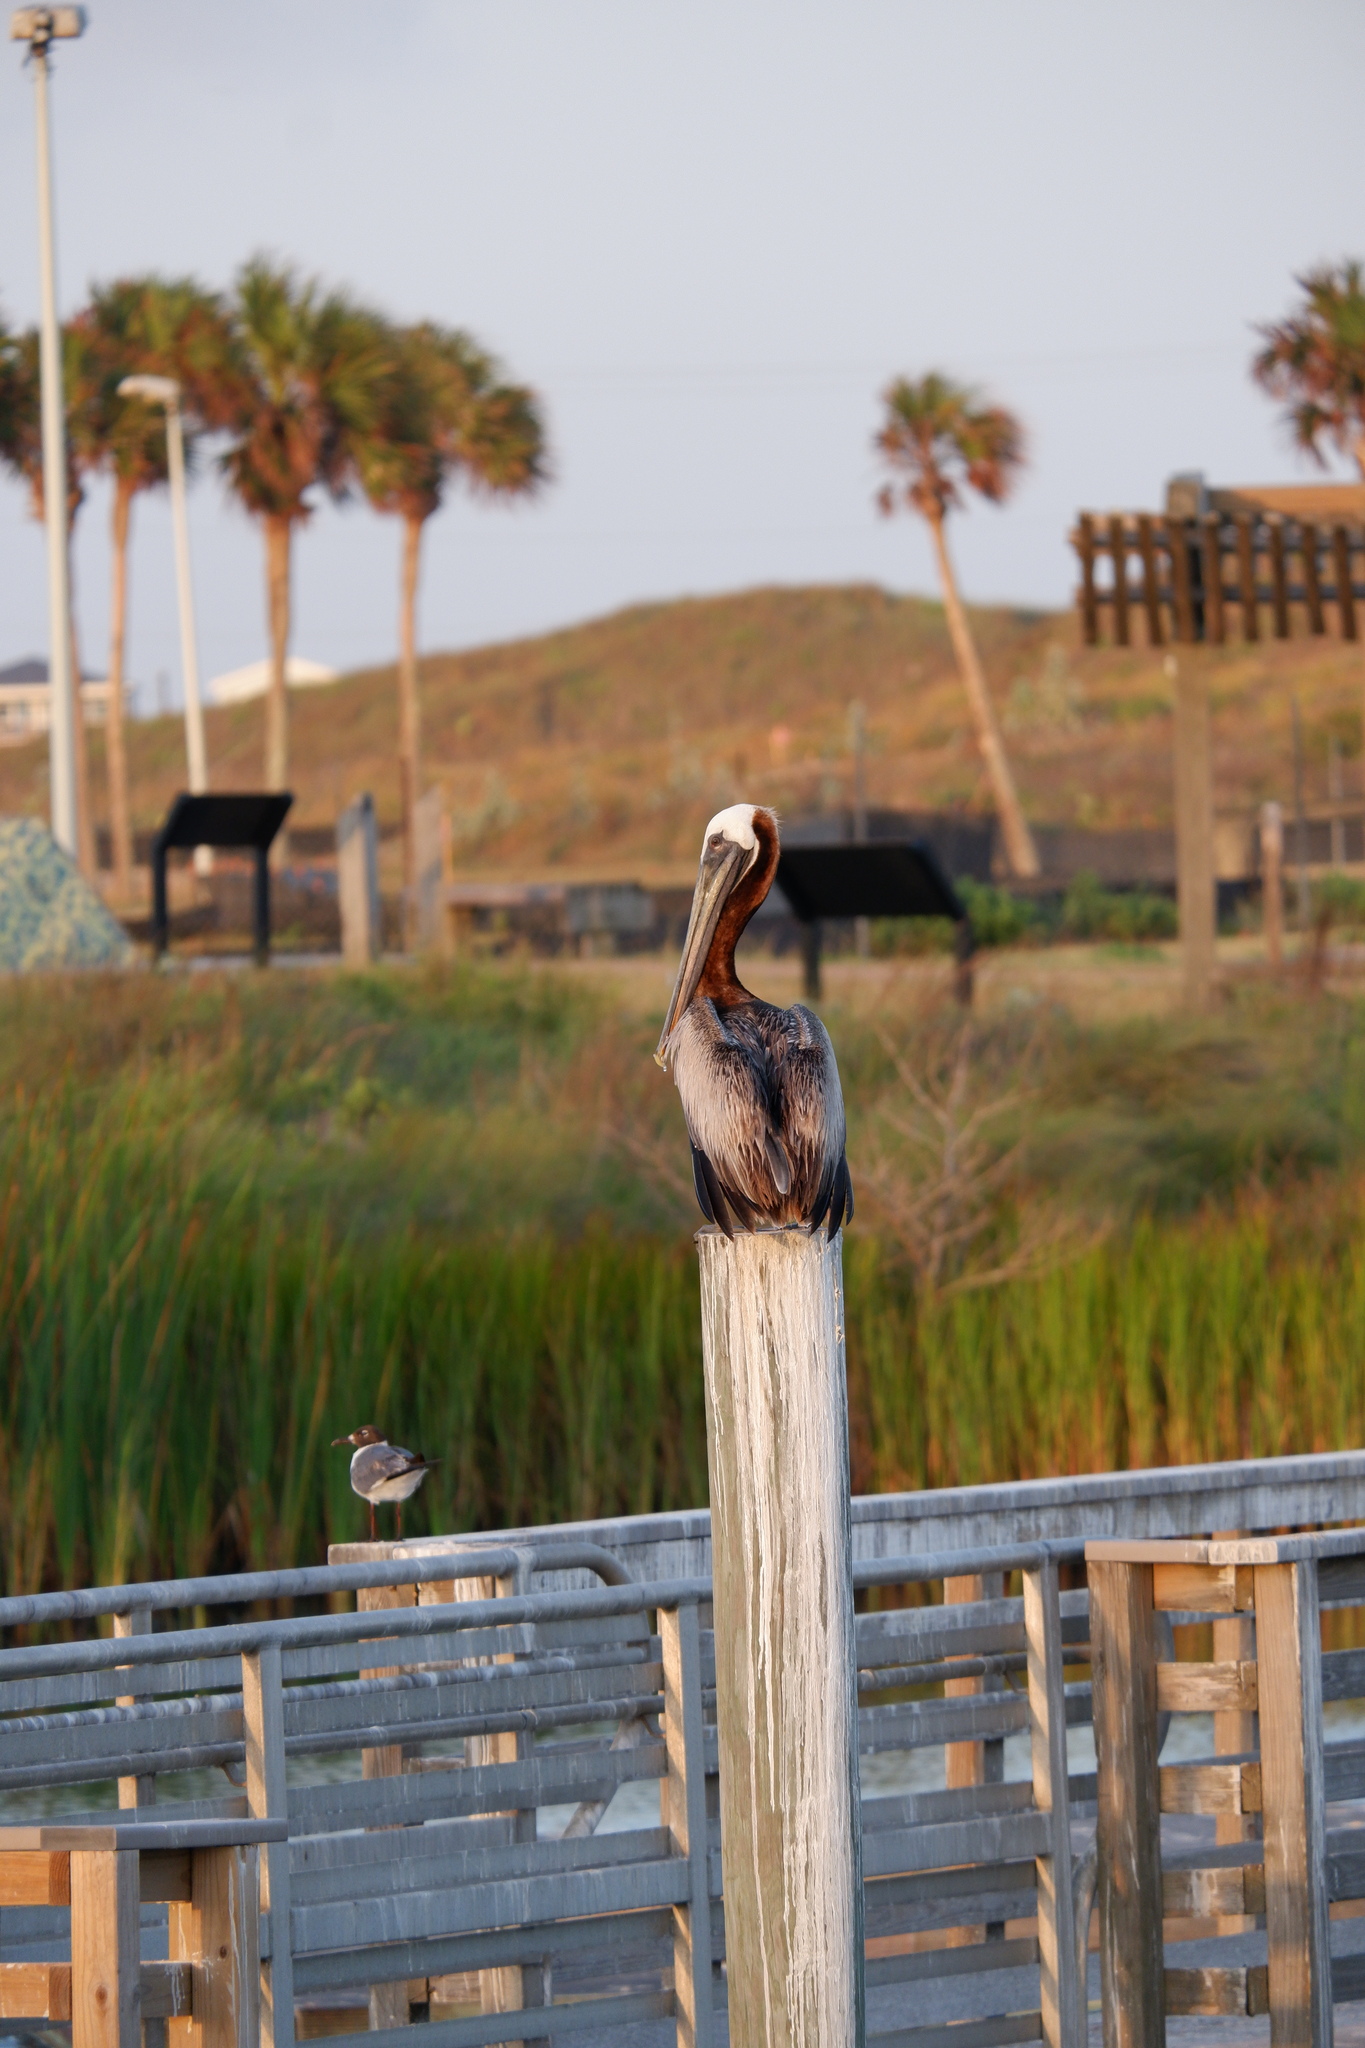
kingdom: Animalia
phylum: Chordata
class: Aves
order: Charadriiformes
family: Laridae
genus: Leucophaeus
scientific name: Leucophaeus atricilla
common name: Laughing gull
